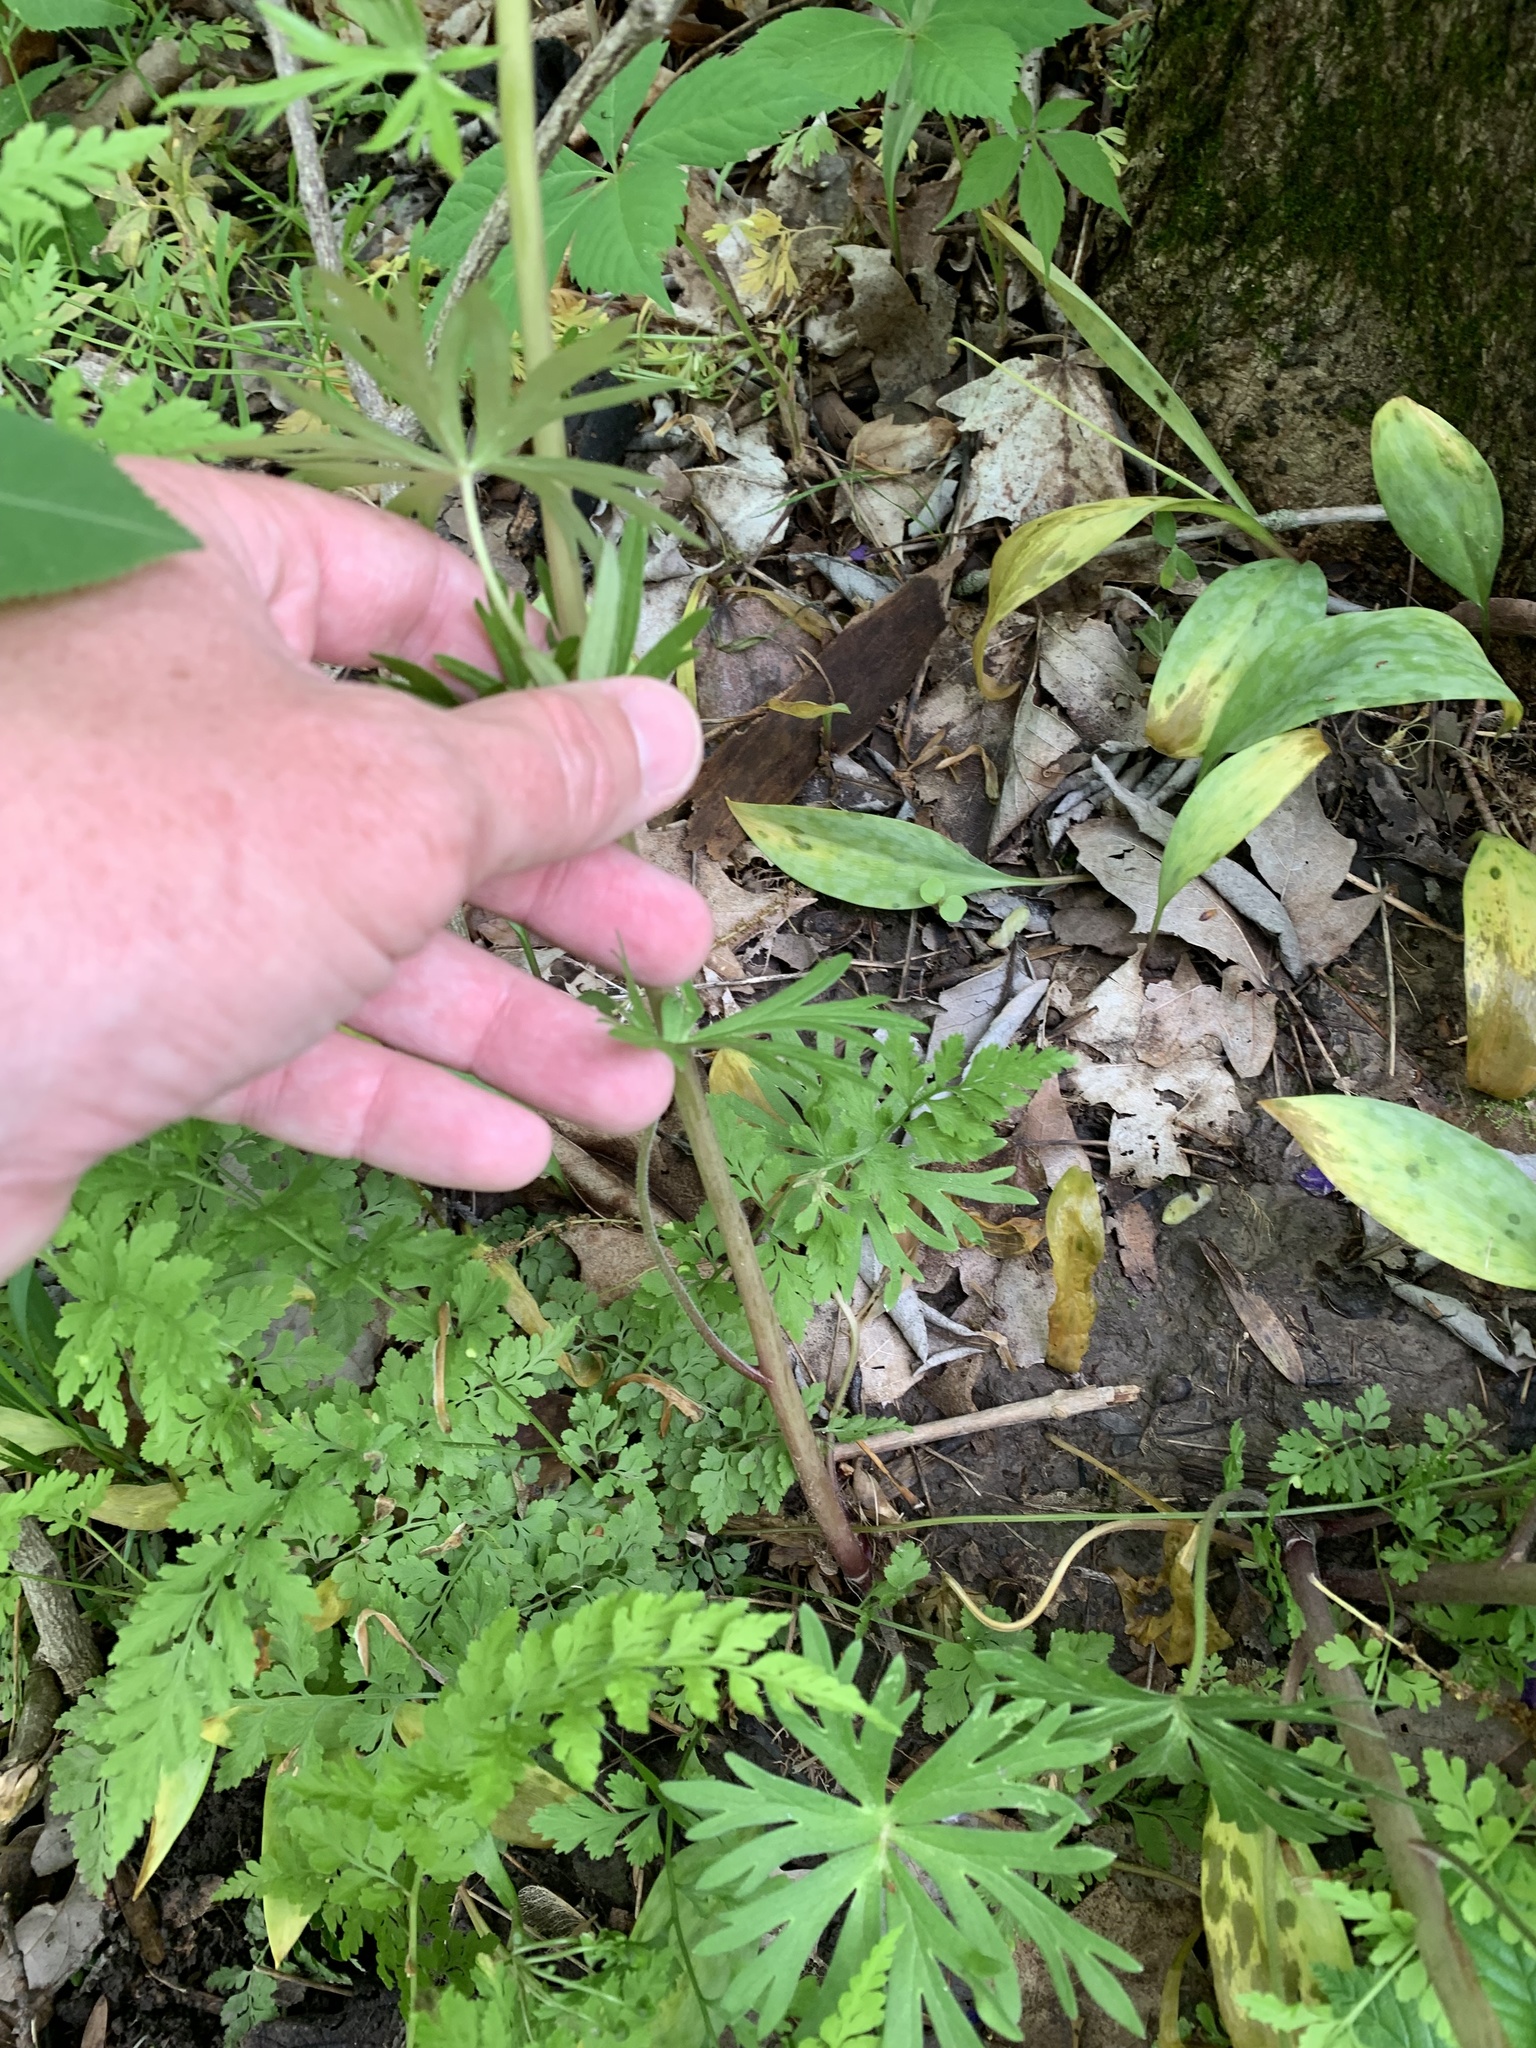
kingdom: Plantae
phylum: Tracheophyta
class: Magnoliopsida
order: Ranunculales
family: Ranunculaceae
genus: Delphinium
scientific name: Delphinium tricorne
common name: Dwarf larkspur
